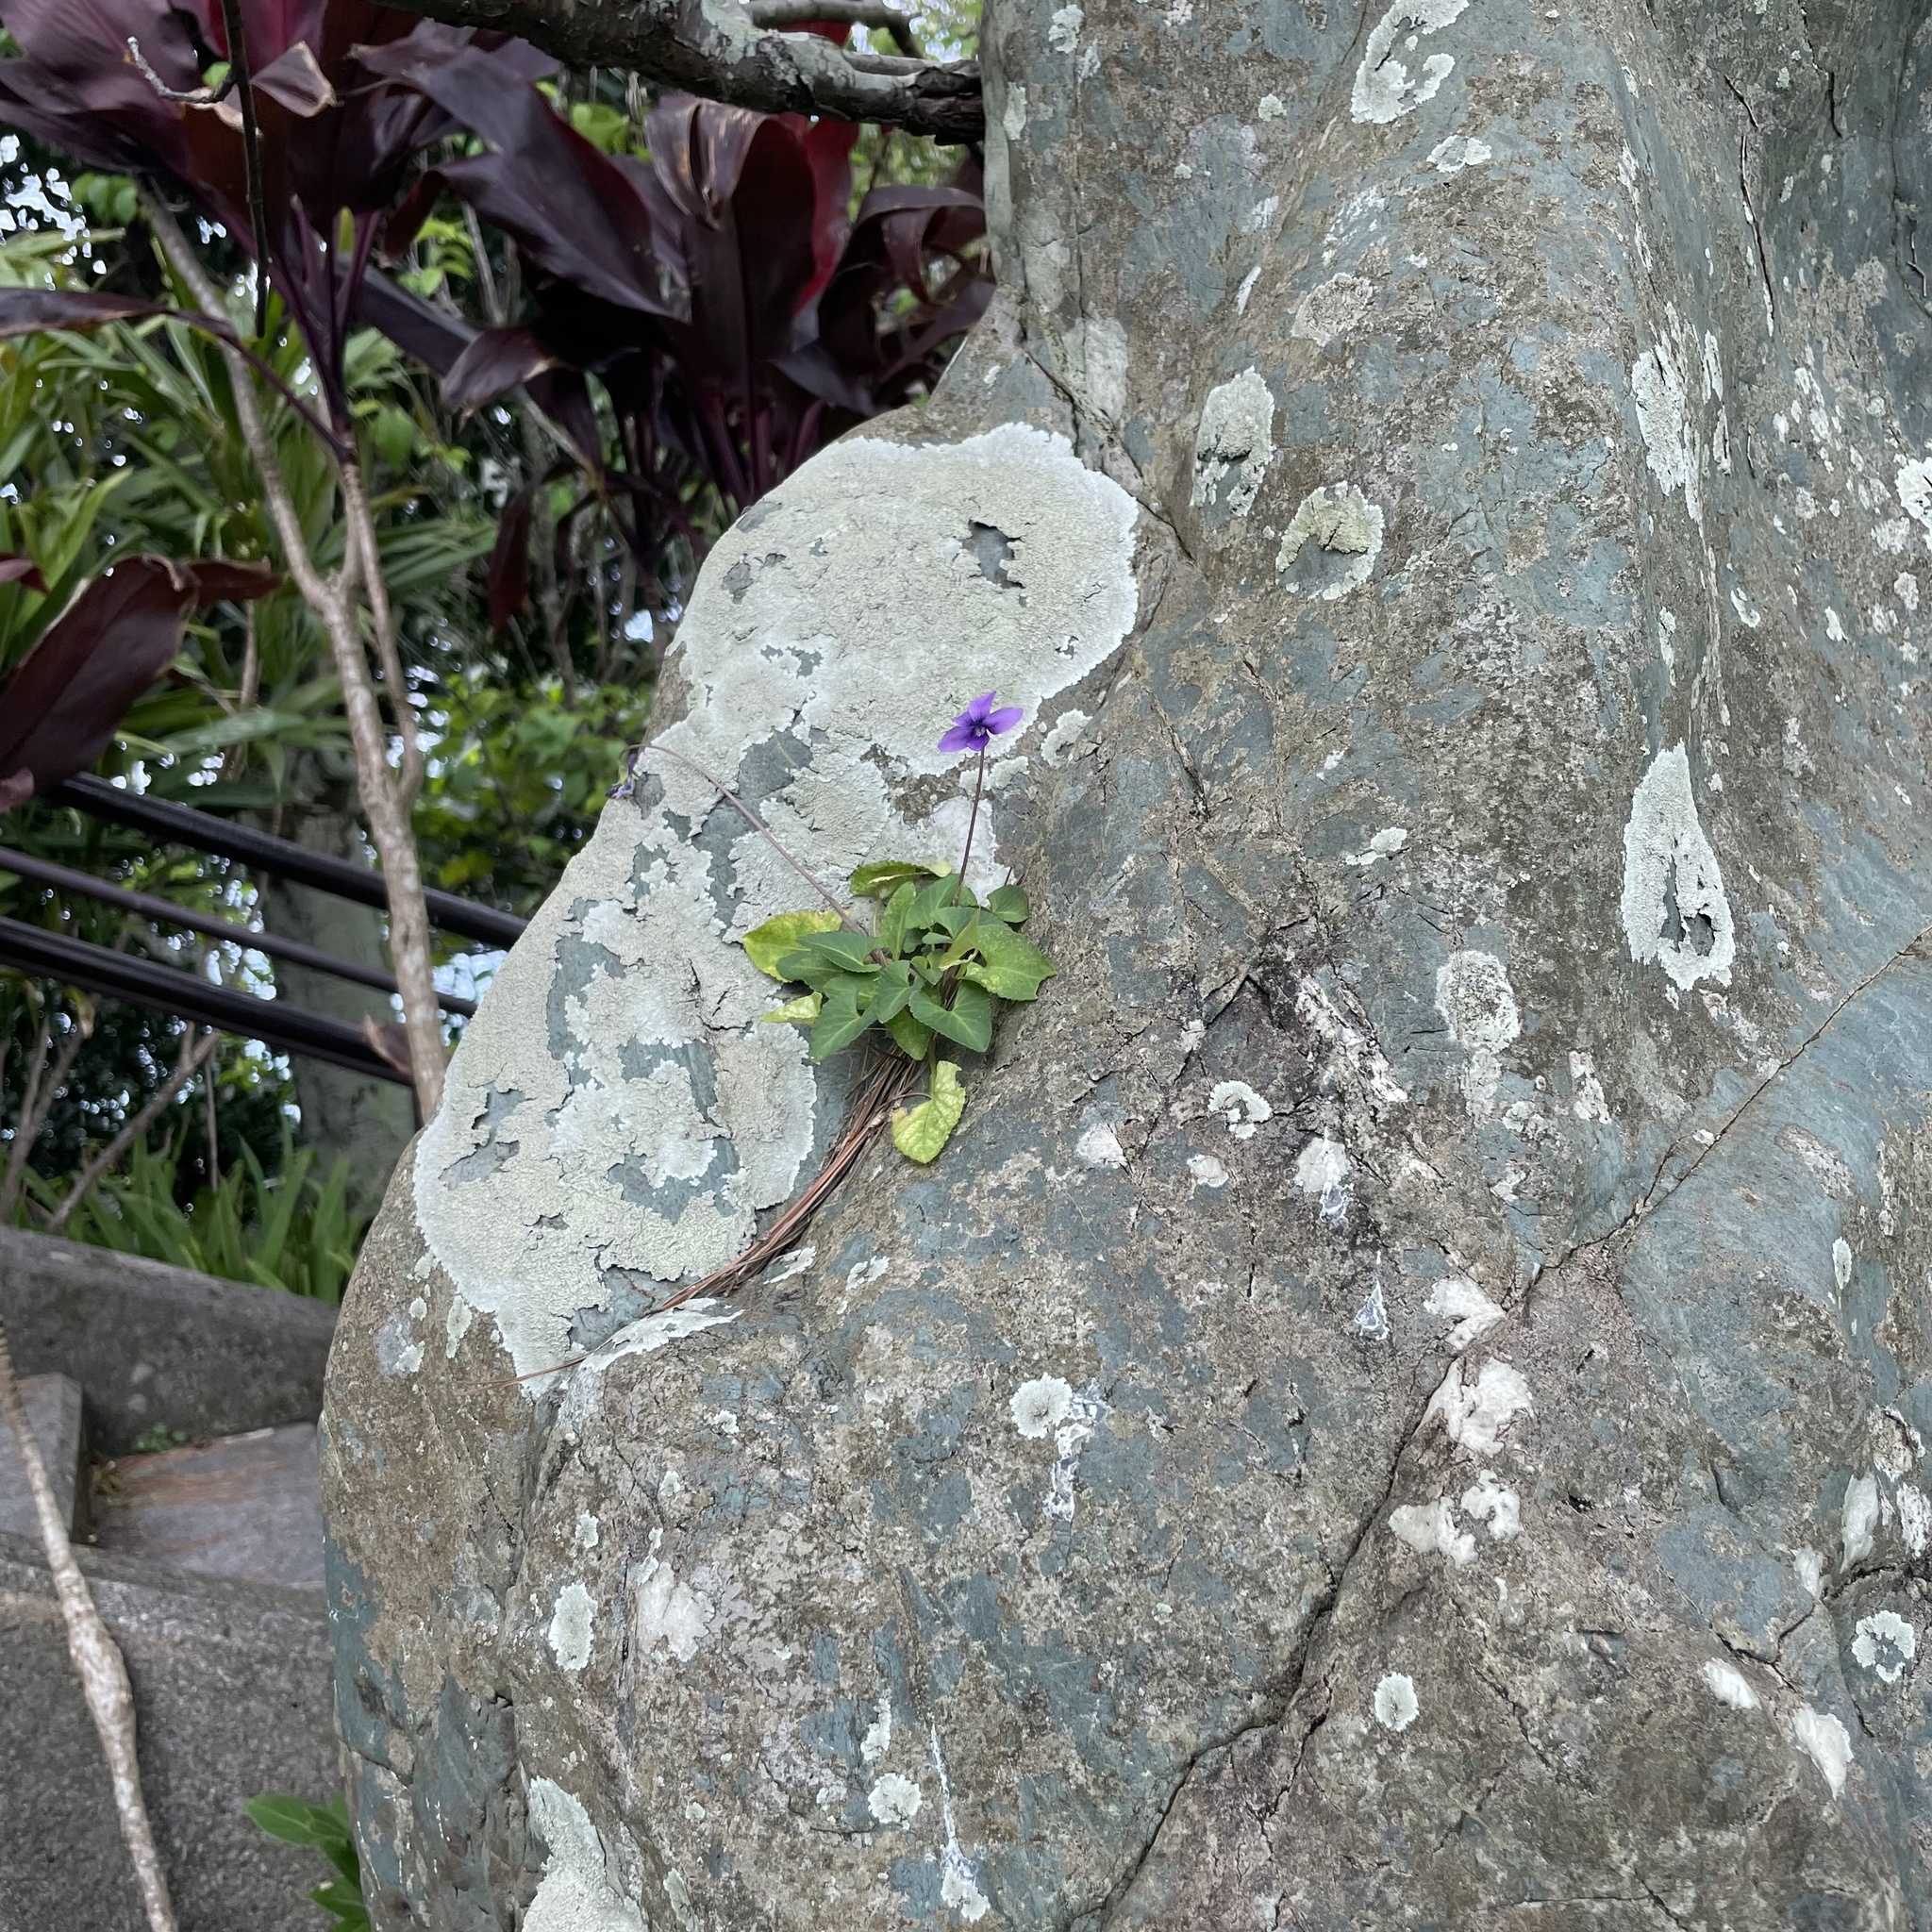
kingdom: Plantae
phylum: Tracheophyta
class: Magnoliopsida
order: Malpighiales
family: Violaceae
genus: Viola
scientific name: Viola philippica
